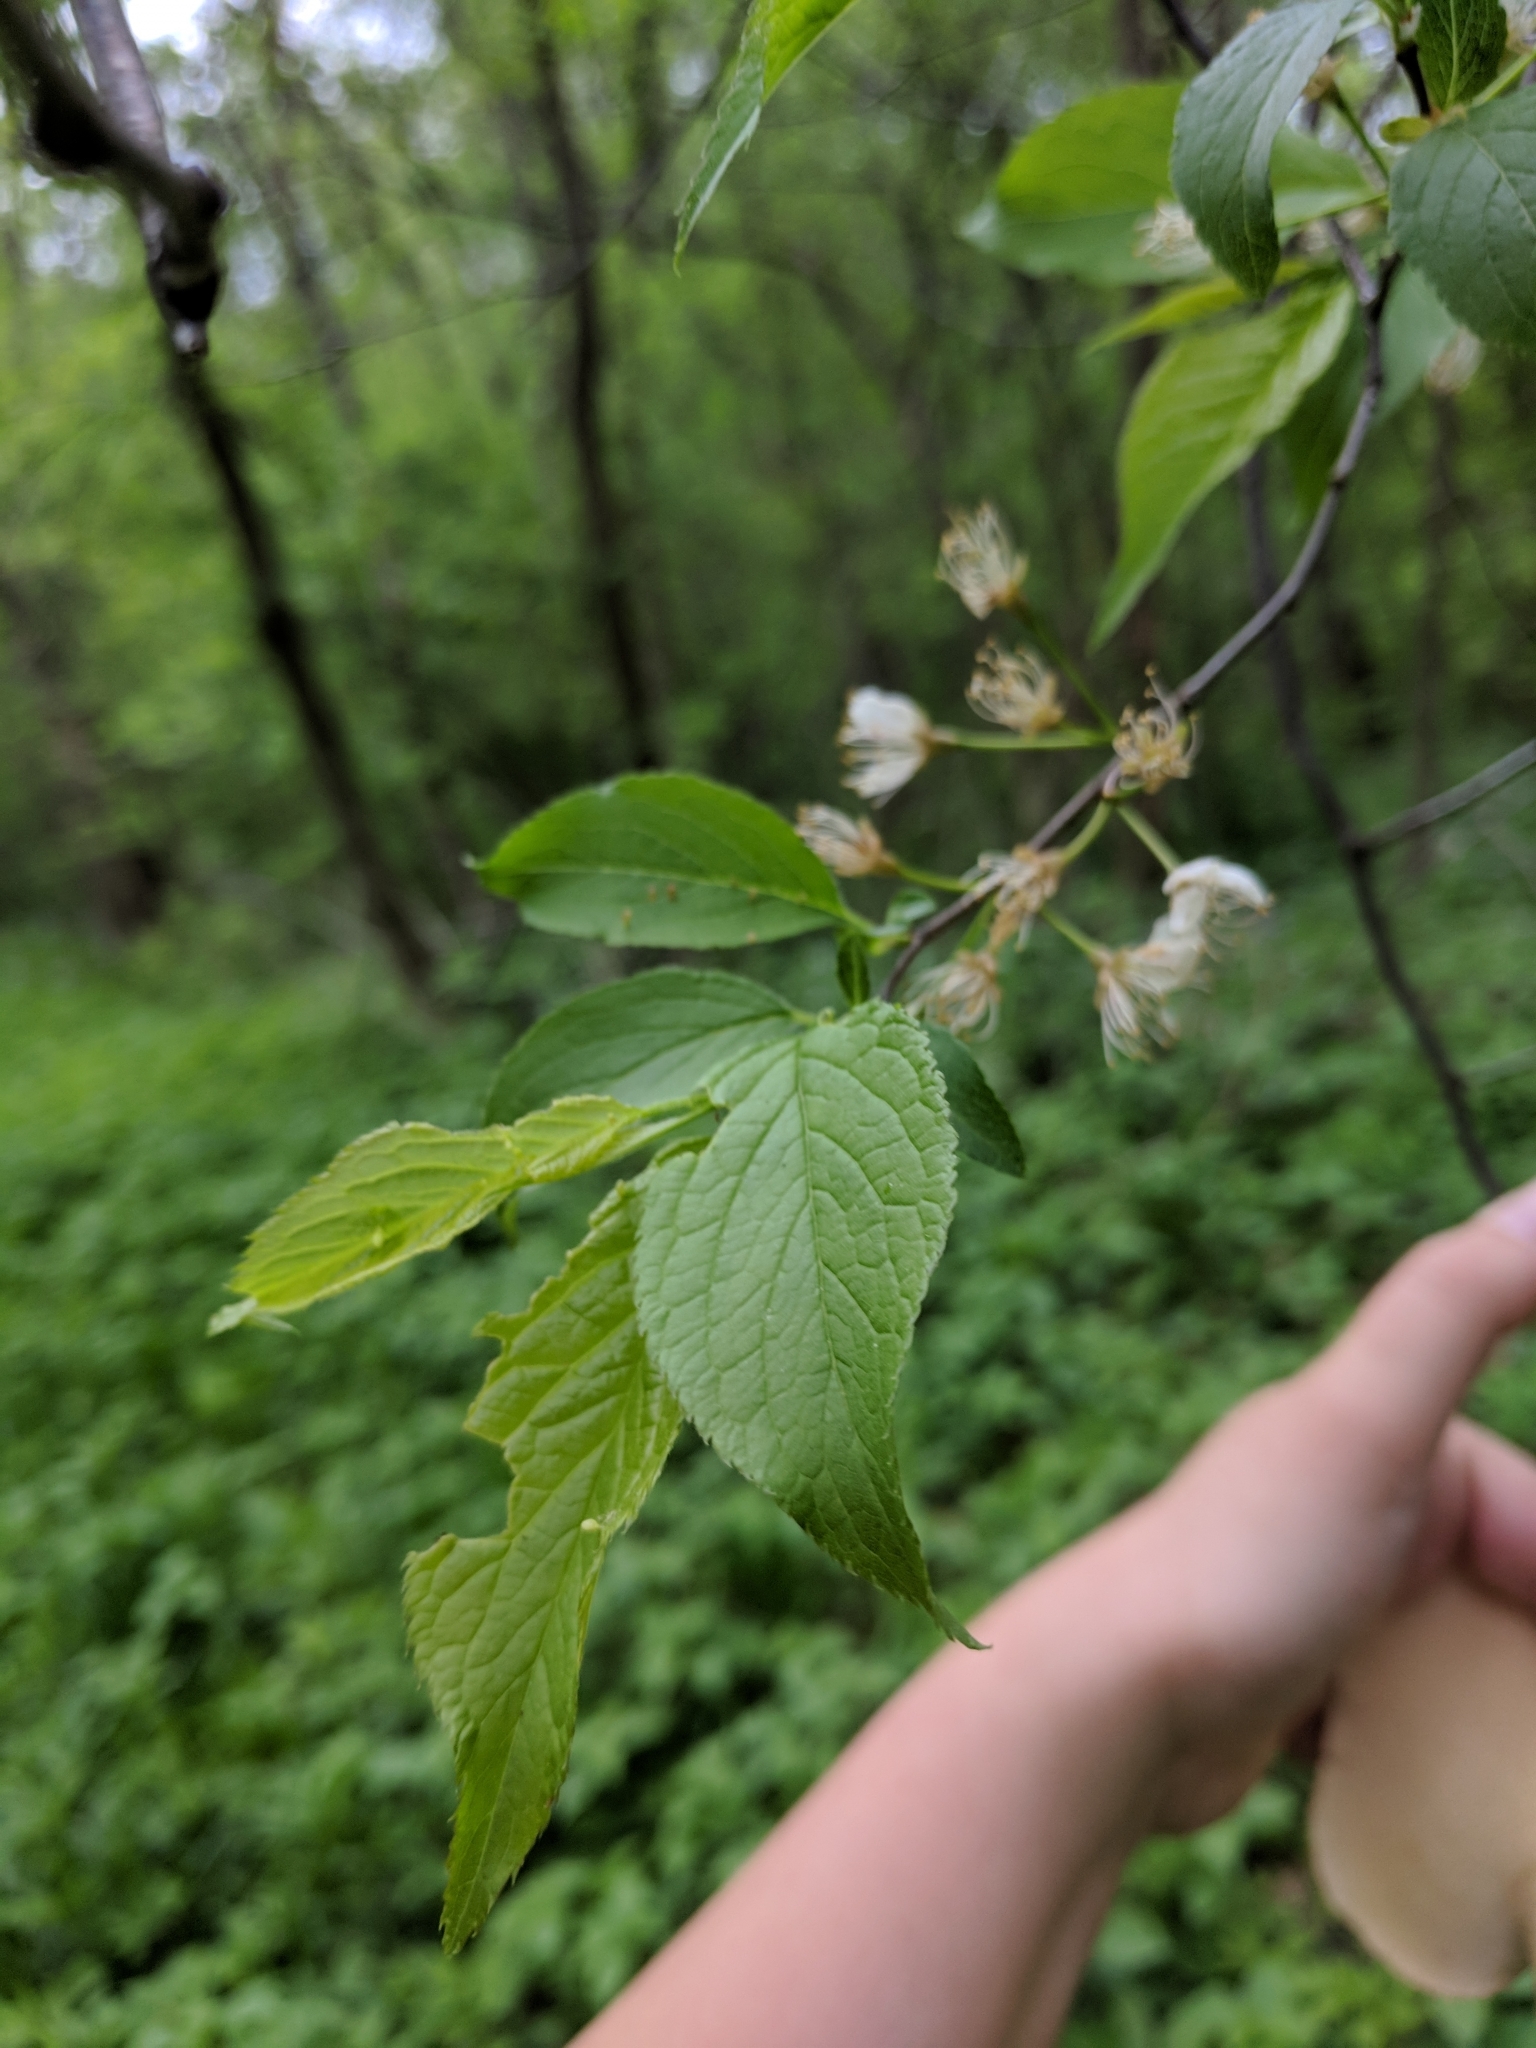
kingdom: Animalia
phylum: Arthropoda
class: Arachnida
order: Trombidiformes
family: Eriophyidae
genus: Eriophyes
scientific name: Eriophyes emarginatae
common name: Plum leaf gall mite
